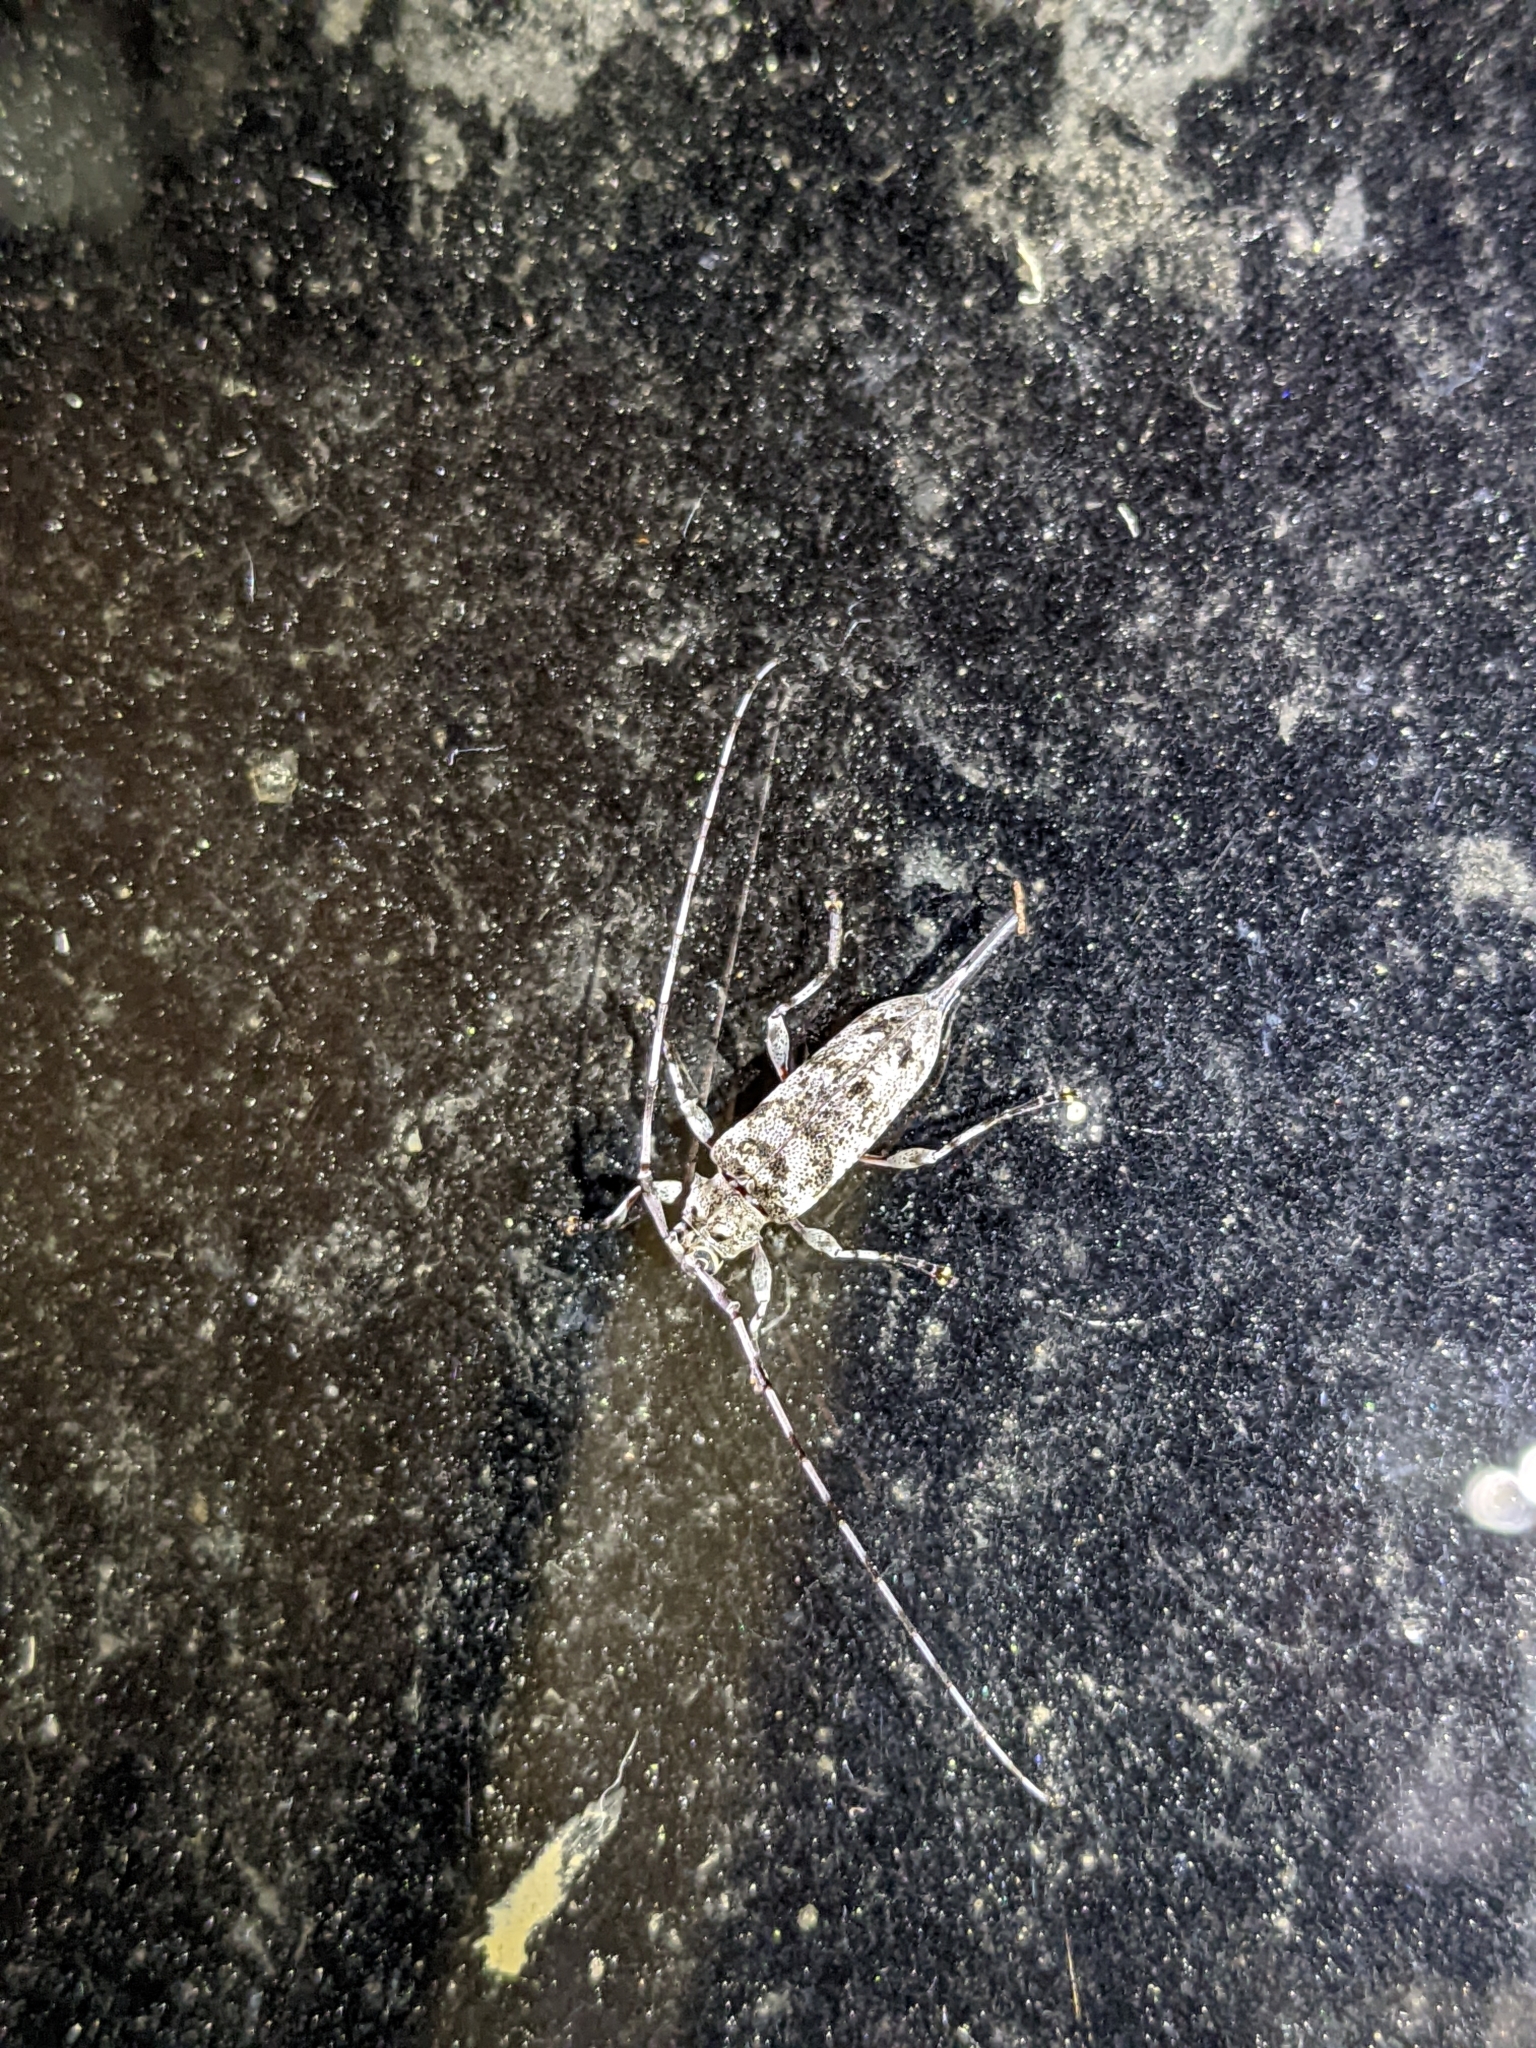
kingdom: Animalia
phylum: Arthropoda
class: Insecta
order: Coleoptera
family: Cerambycidae
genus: Graphisurus
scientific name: Graphisurus fasciatus
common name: Banded graphisurus
